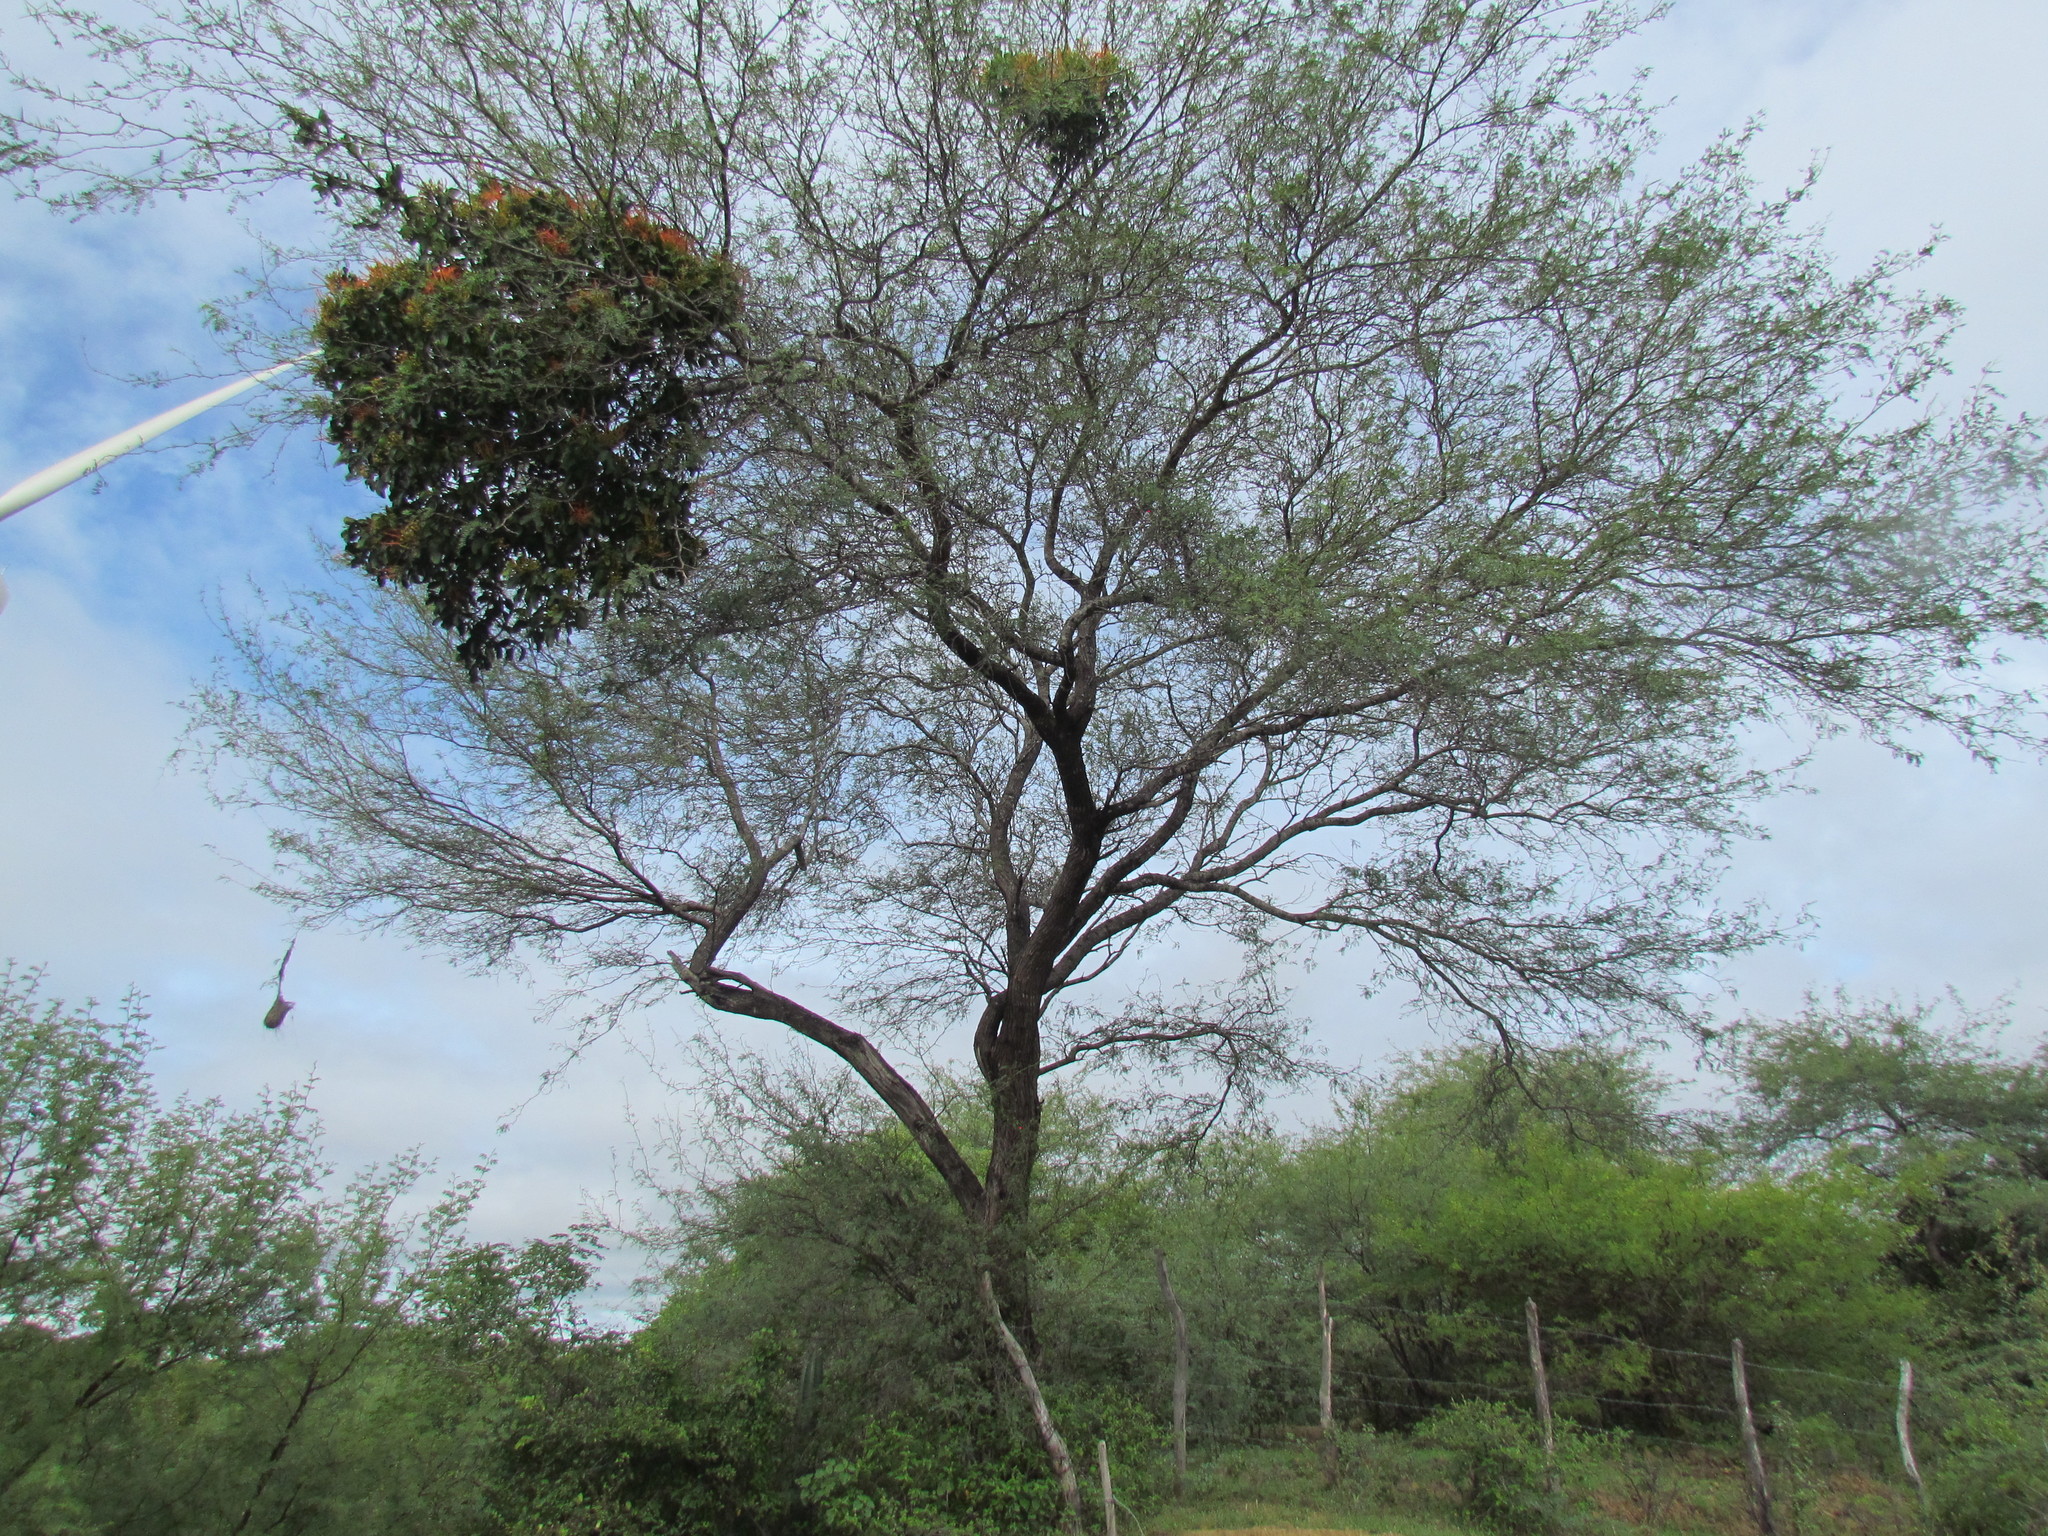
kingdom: Plantae
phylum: Tracheophyta
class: Magnoliopsida
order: Fabales
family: Fabaceae
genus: Prosopis
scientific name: Prosopis laevigata
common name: Smooth mesquite
